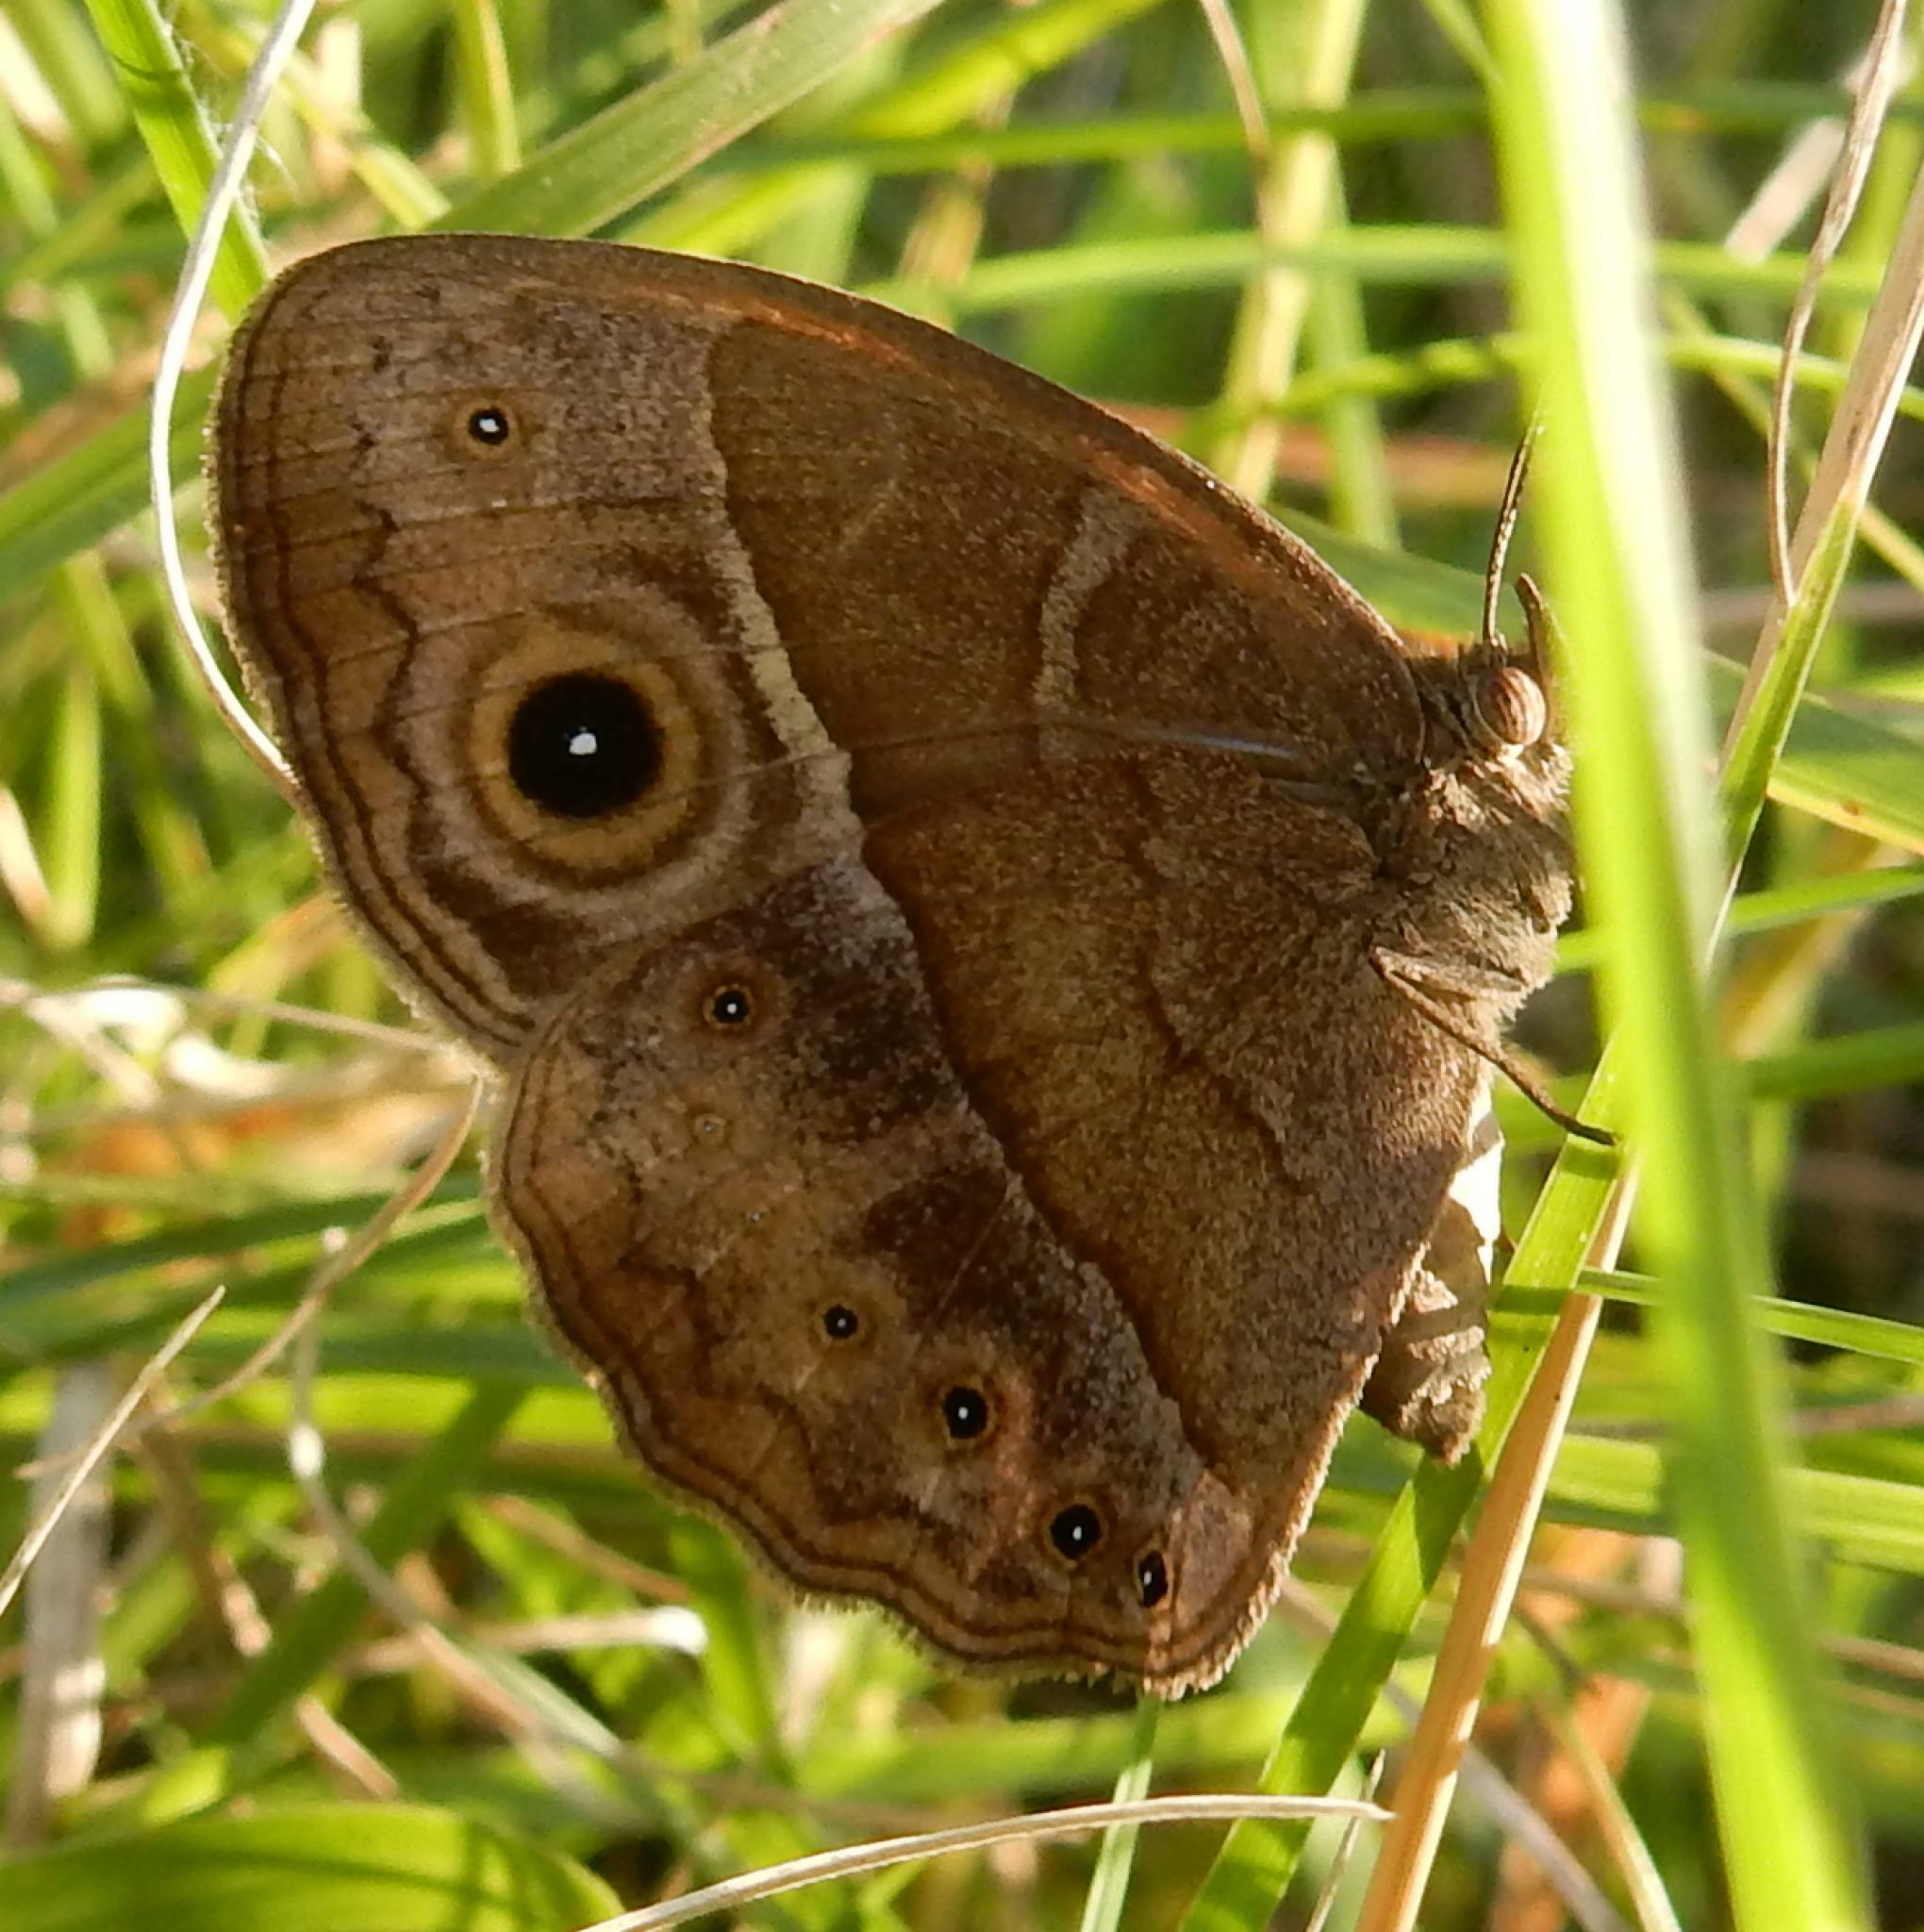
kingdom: Animalia
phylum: Arthropoda
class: Insecta
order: Lepidoptera
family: Nymphalidae
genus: Mycalesis
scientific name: Mycalesis rhacotis
